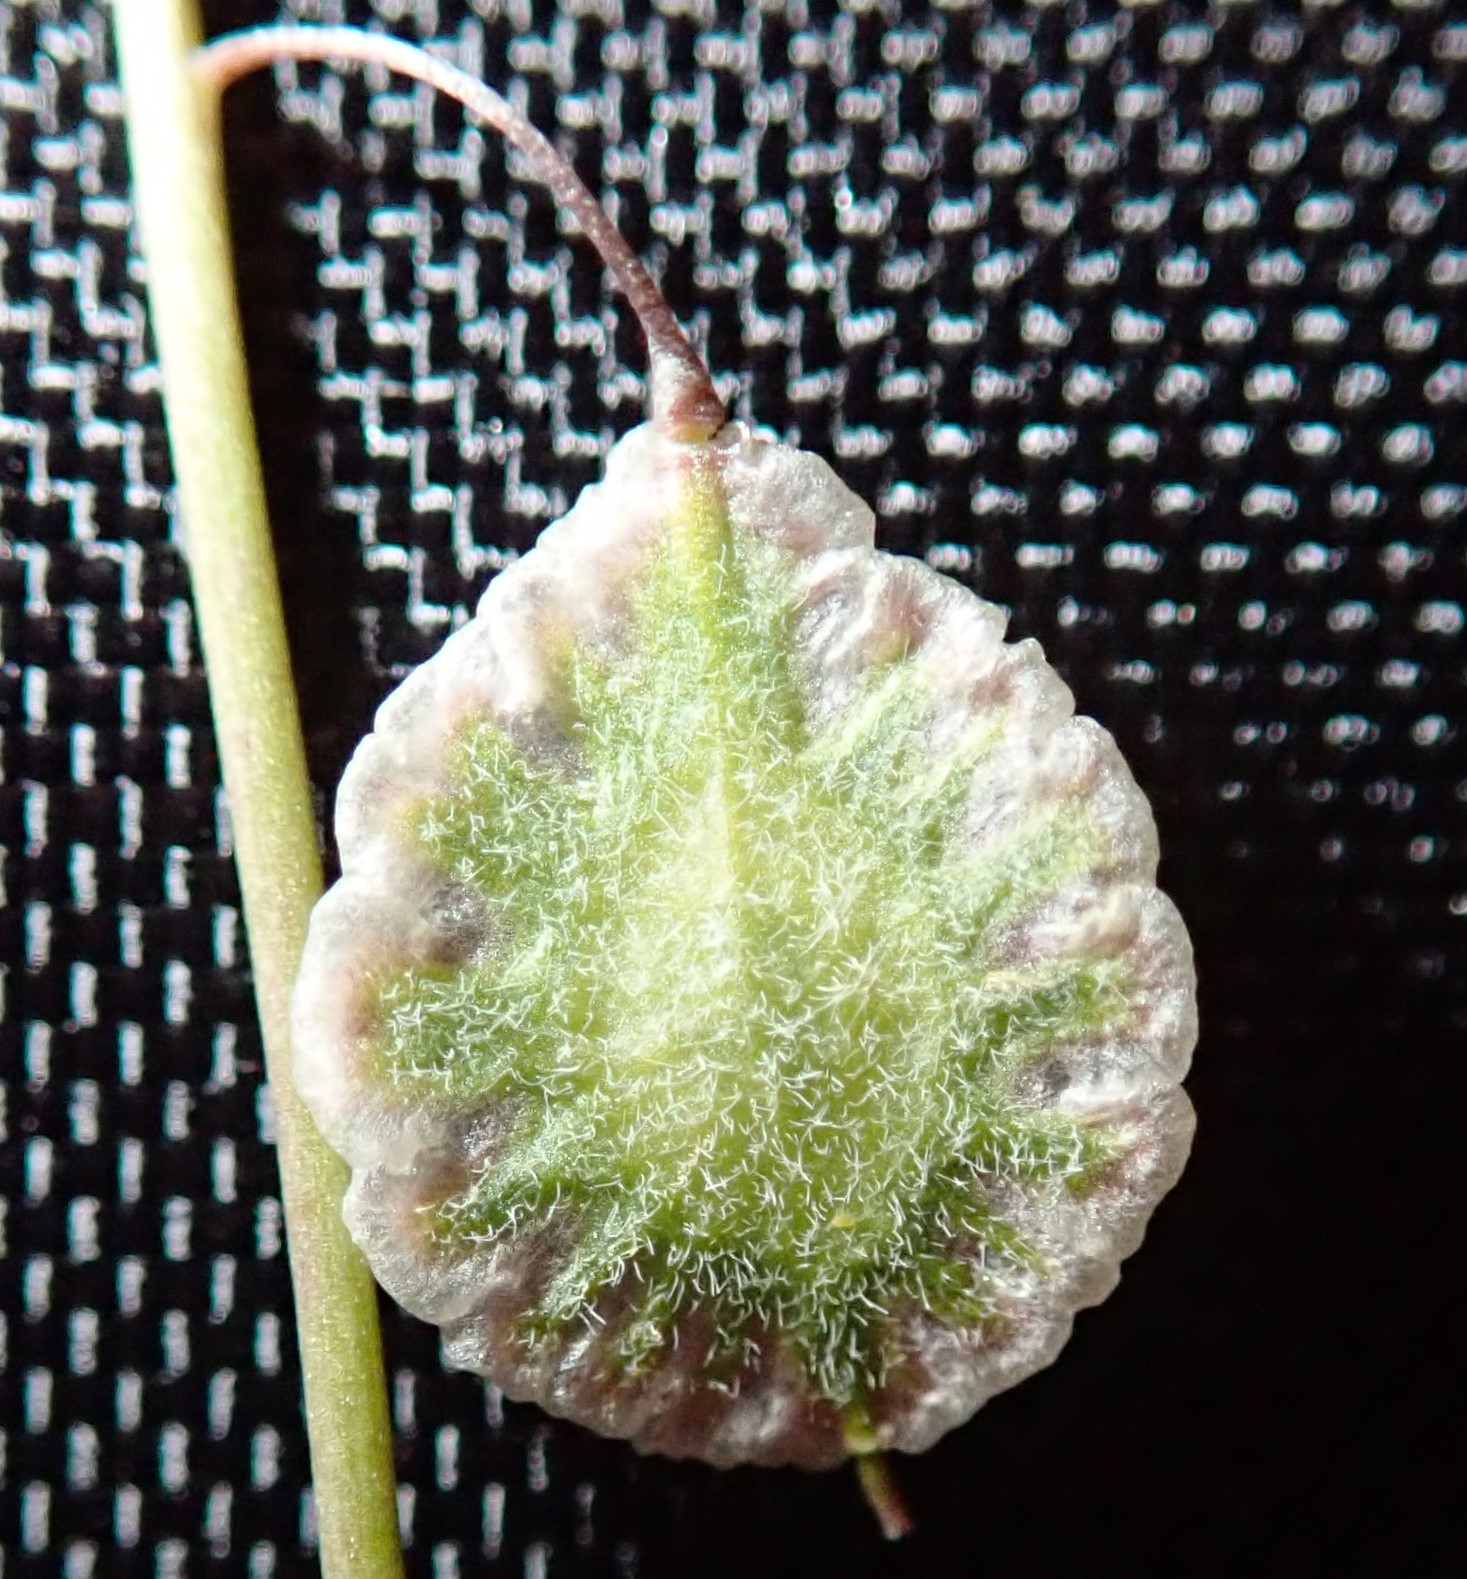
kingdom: Plantae
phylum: Tracheophyta
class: Magnoliopsida
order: Brassicales
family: Brassicaceae
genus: Thysanocarpus
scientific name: Thysanocarpus curvipes
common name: Sand fringepod
